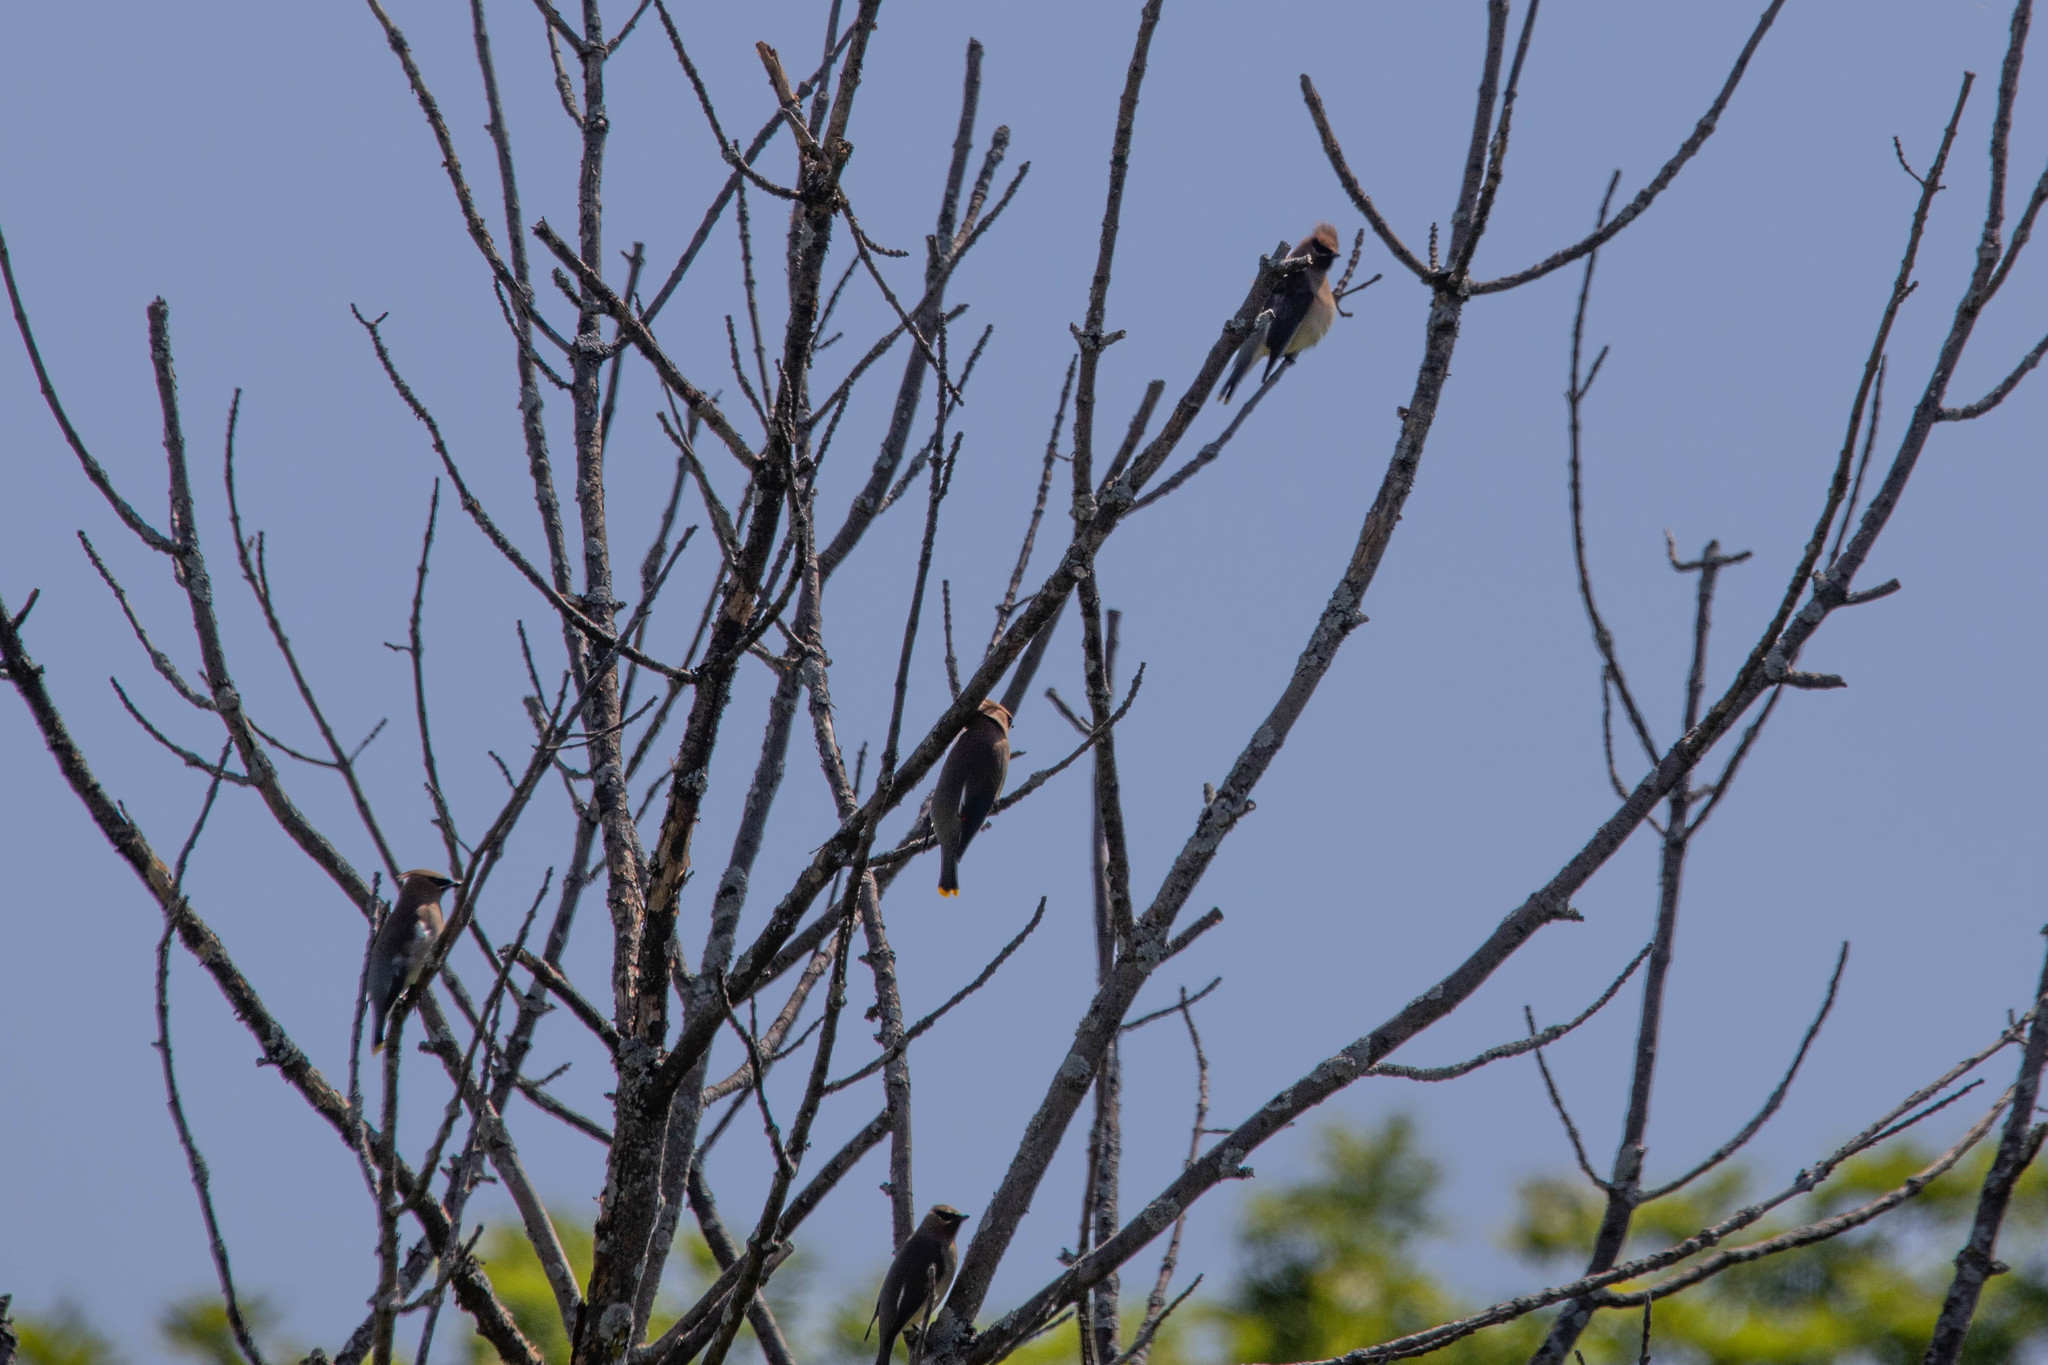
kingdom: Animalia
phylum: Chordata
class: Aves
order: Passeriformes
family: Bombycillidae
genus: Bombycilla
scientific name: Bombycilla cedrorum
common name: Cedar waxwing
